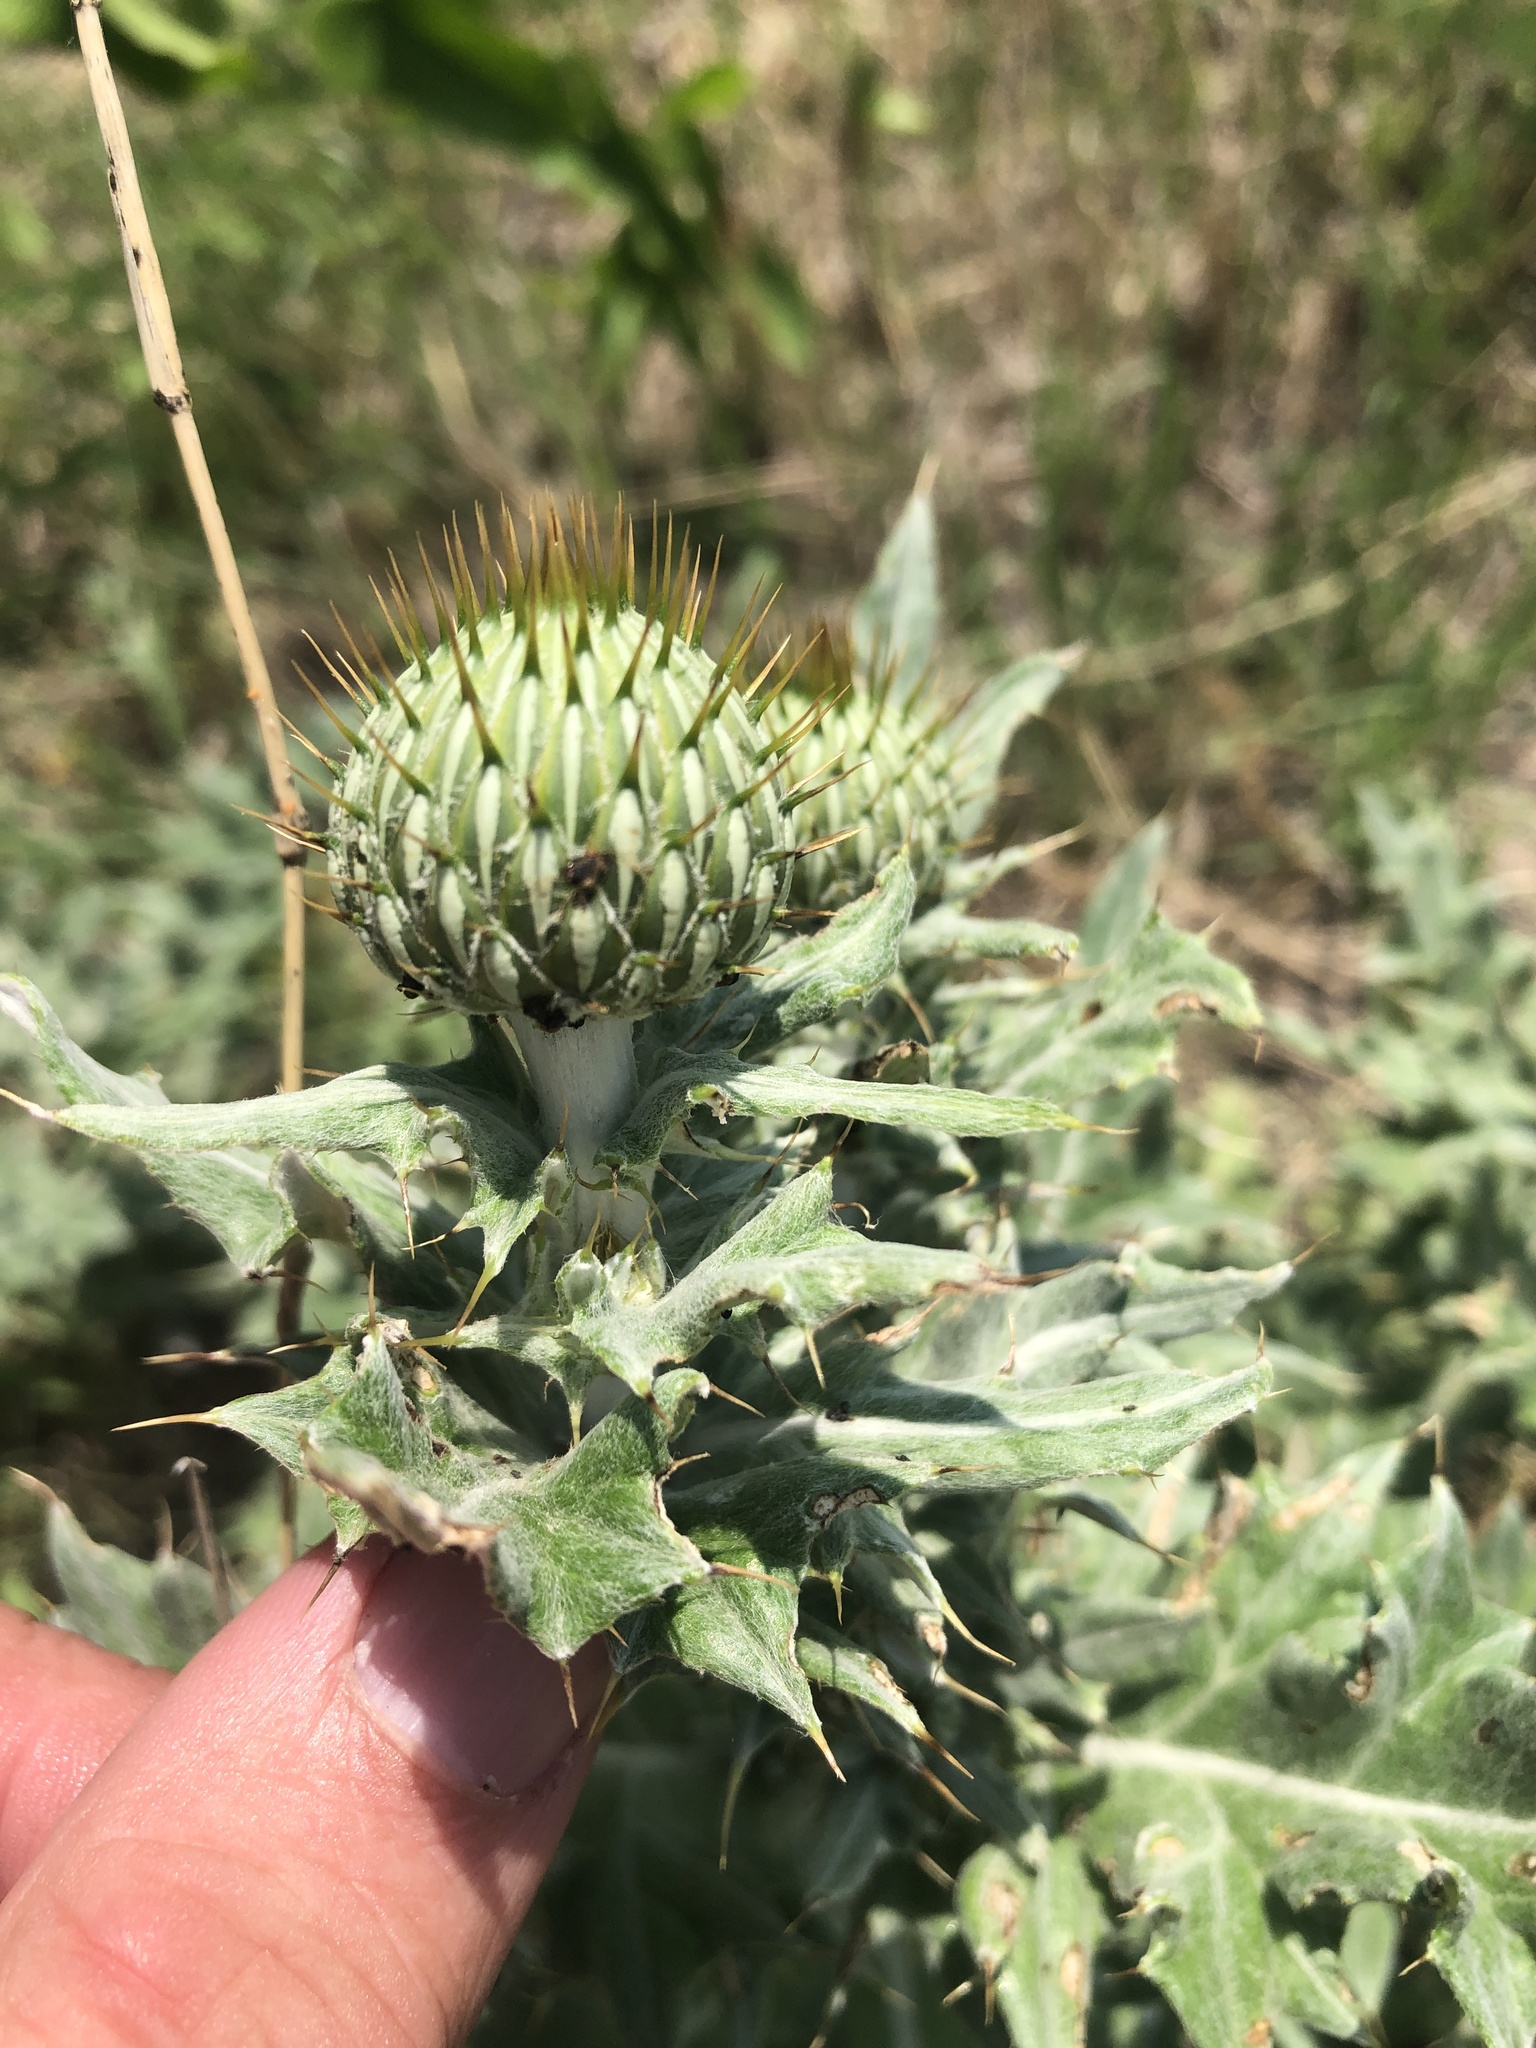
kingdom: Plantae
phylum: Tracheophyta
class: Magnoliopsida
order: Asterales
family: Asteraceae
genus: Cirsium
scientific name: Cirsium undulatum
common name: Pasture thistle
